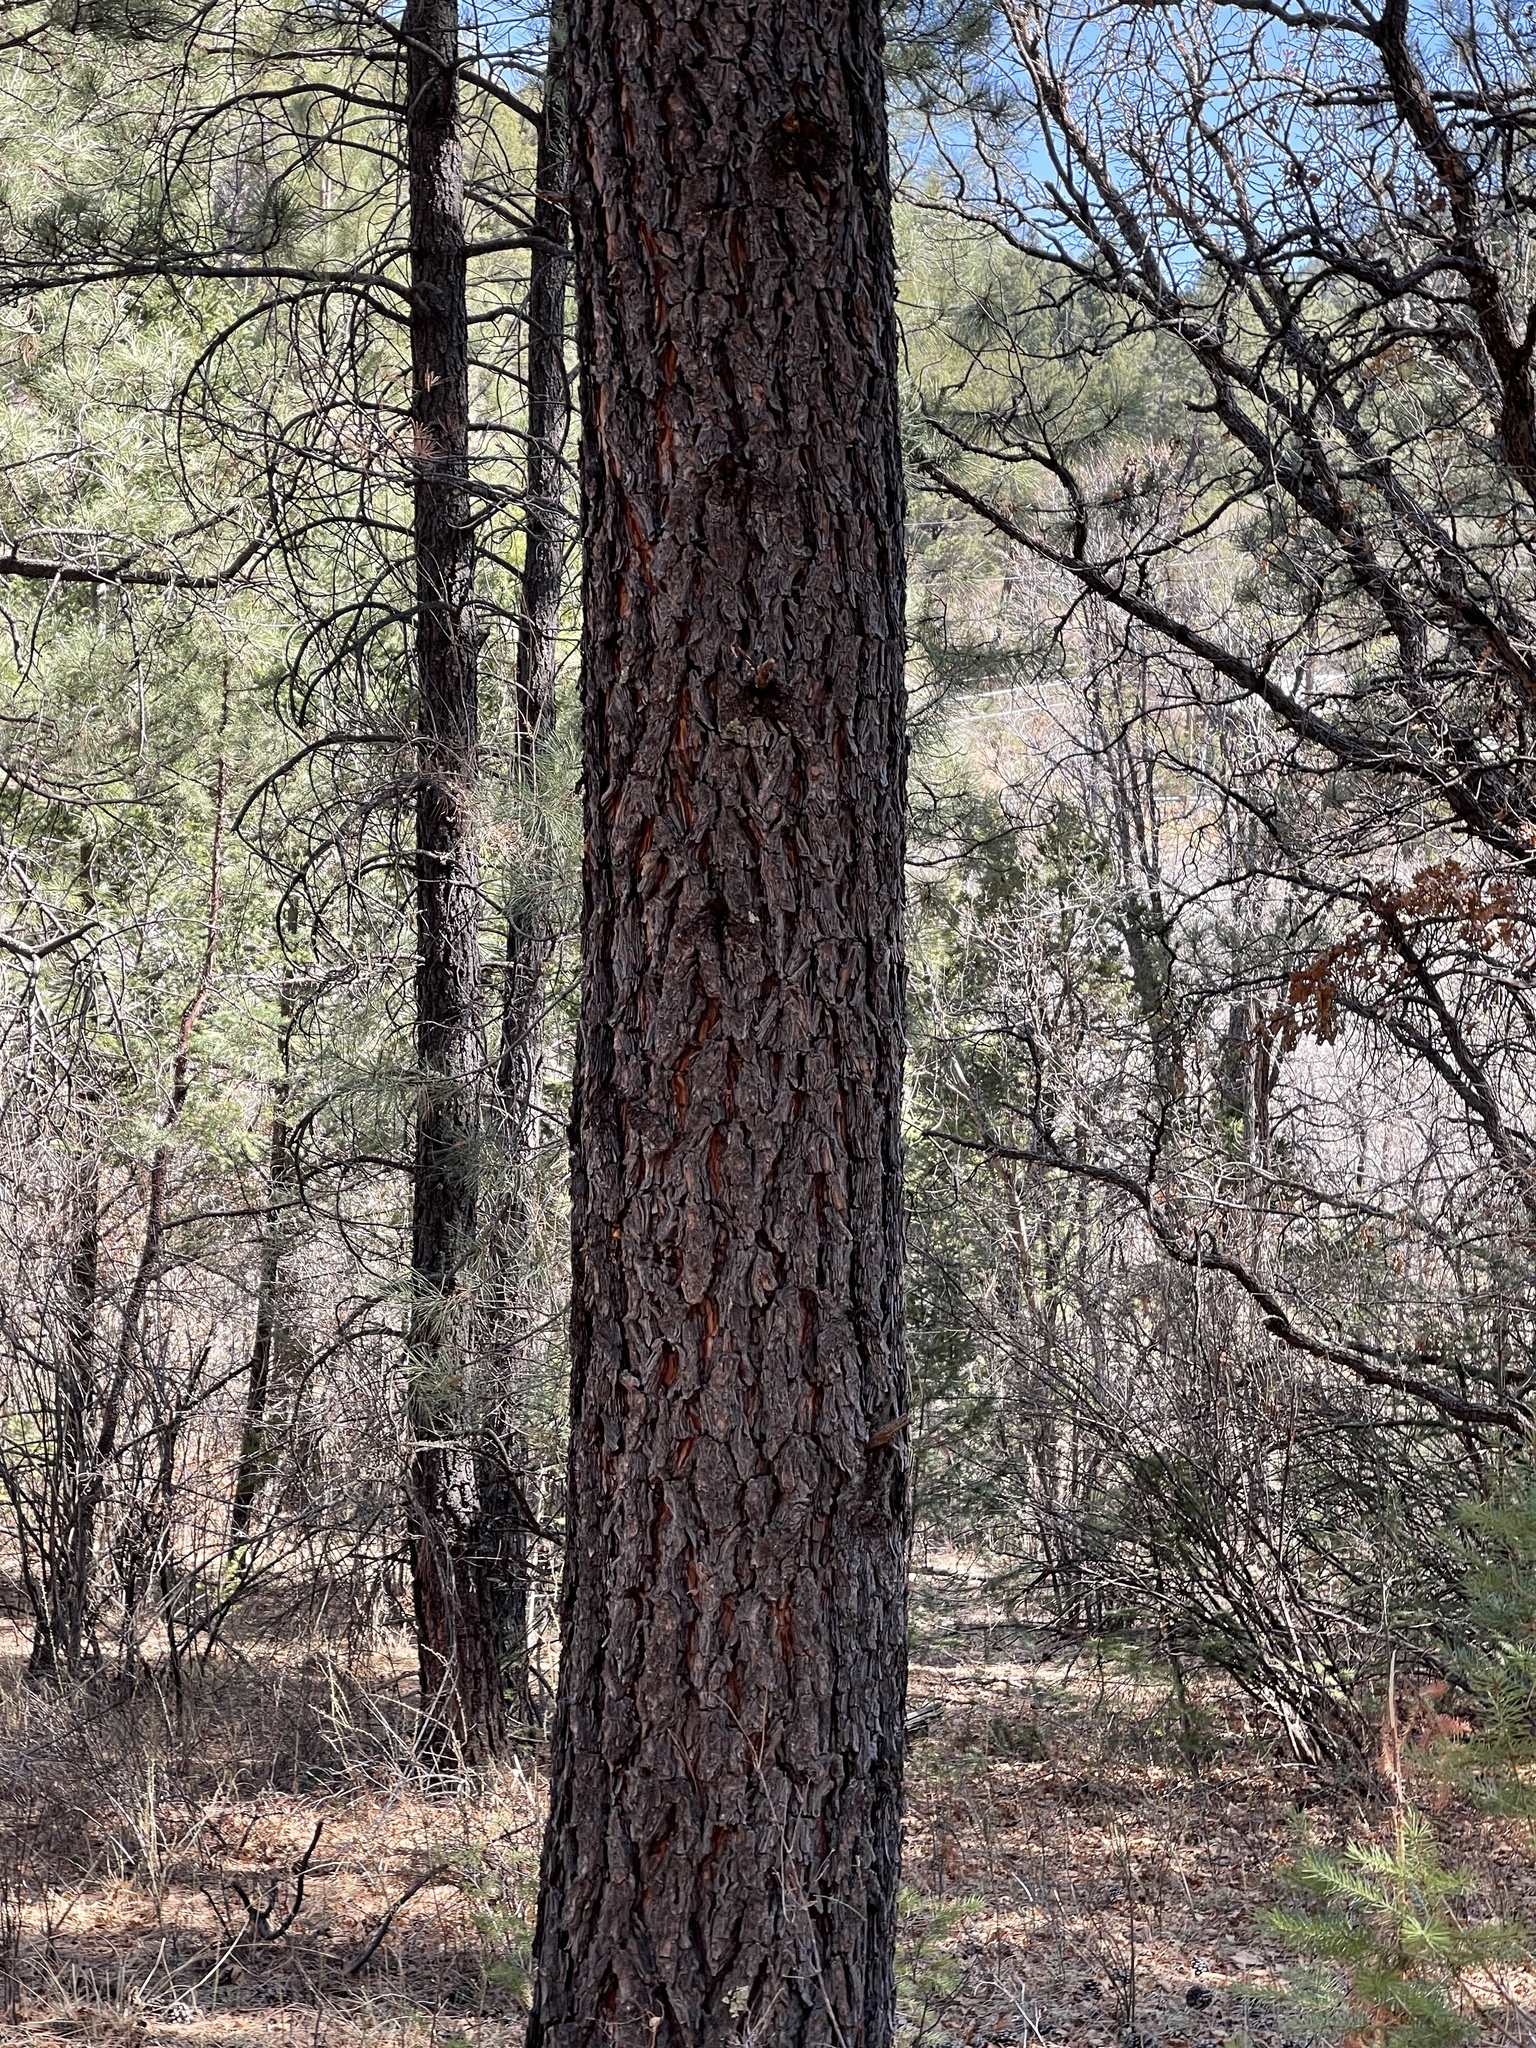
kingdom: Plantae
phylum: Tracheophyta
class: Pinopsida
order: Pinales
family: Pinaceae
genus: Pinus
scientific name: Pinus ponderosa
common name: Western yellow-pine
